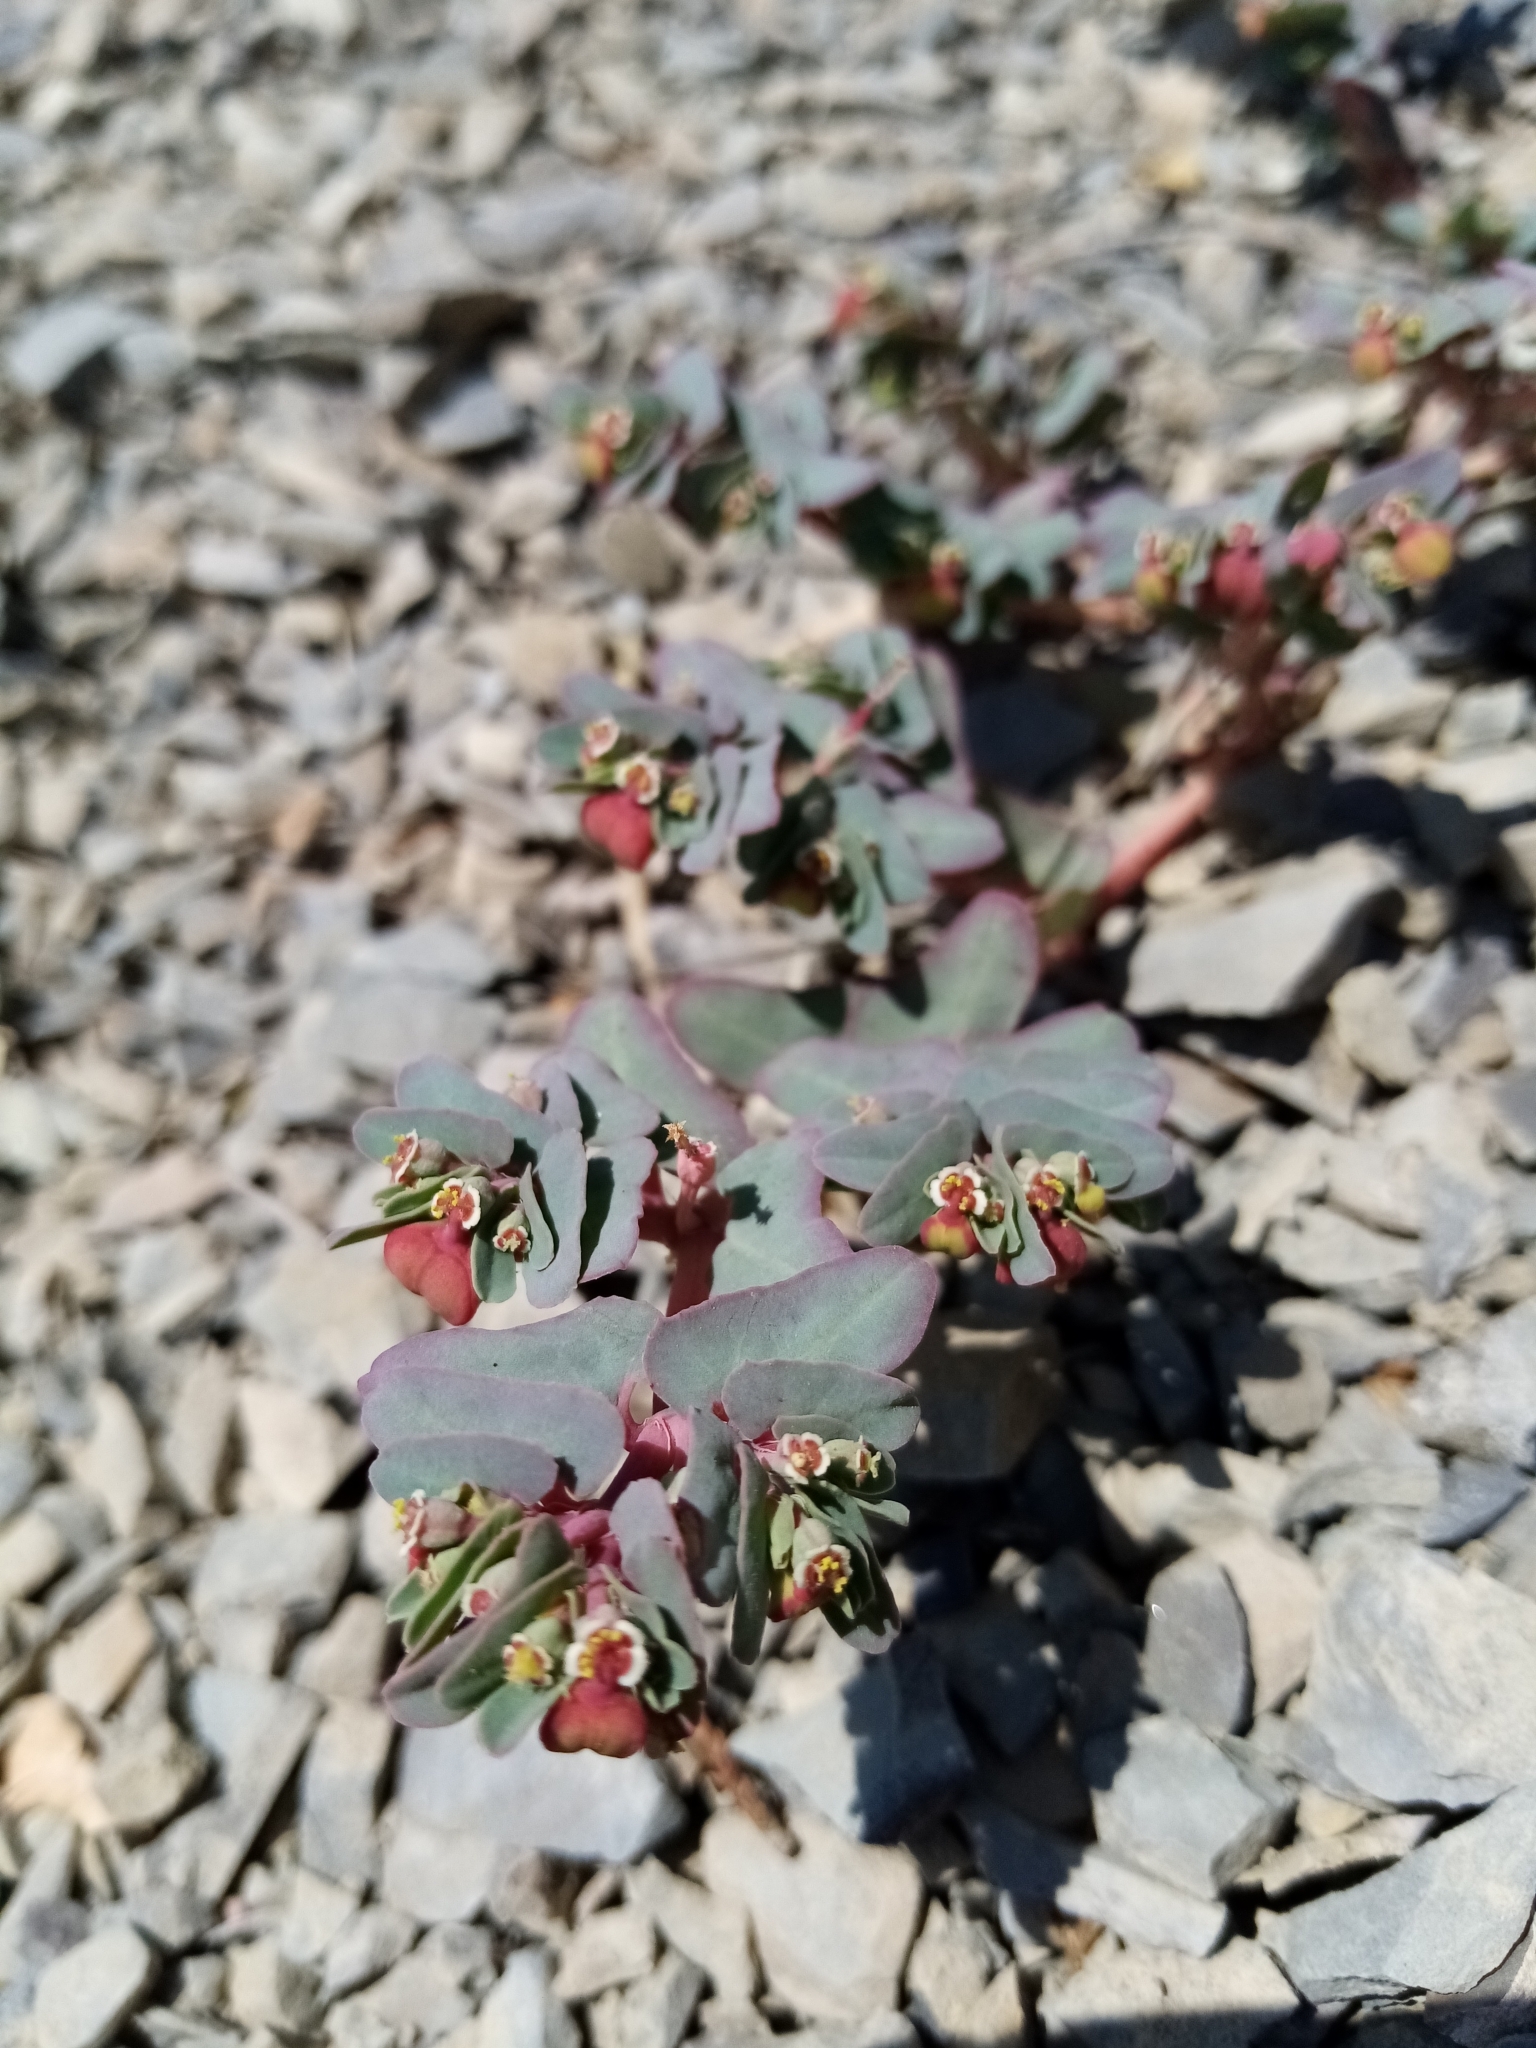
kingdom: Plantae
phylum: Tracheophyta
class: Magnoliopsida
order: Malpighiales
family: Euphorbiaceae
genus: Euphorbia
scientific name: Euphorbia peplis
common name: Purple spurge
